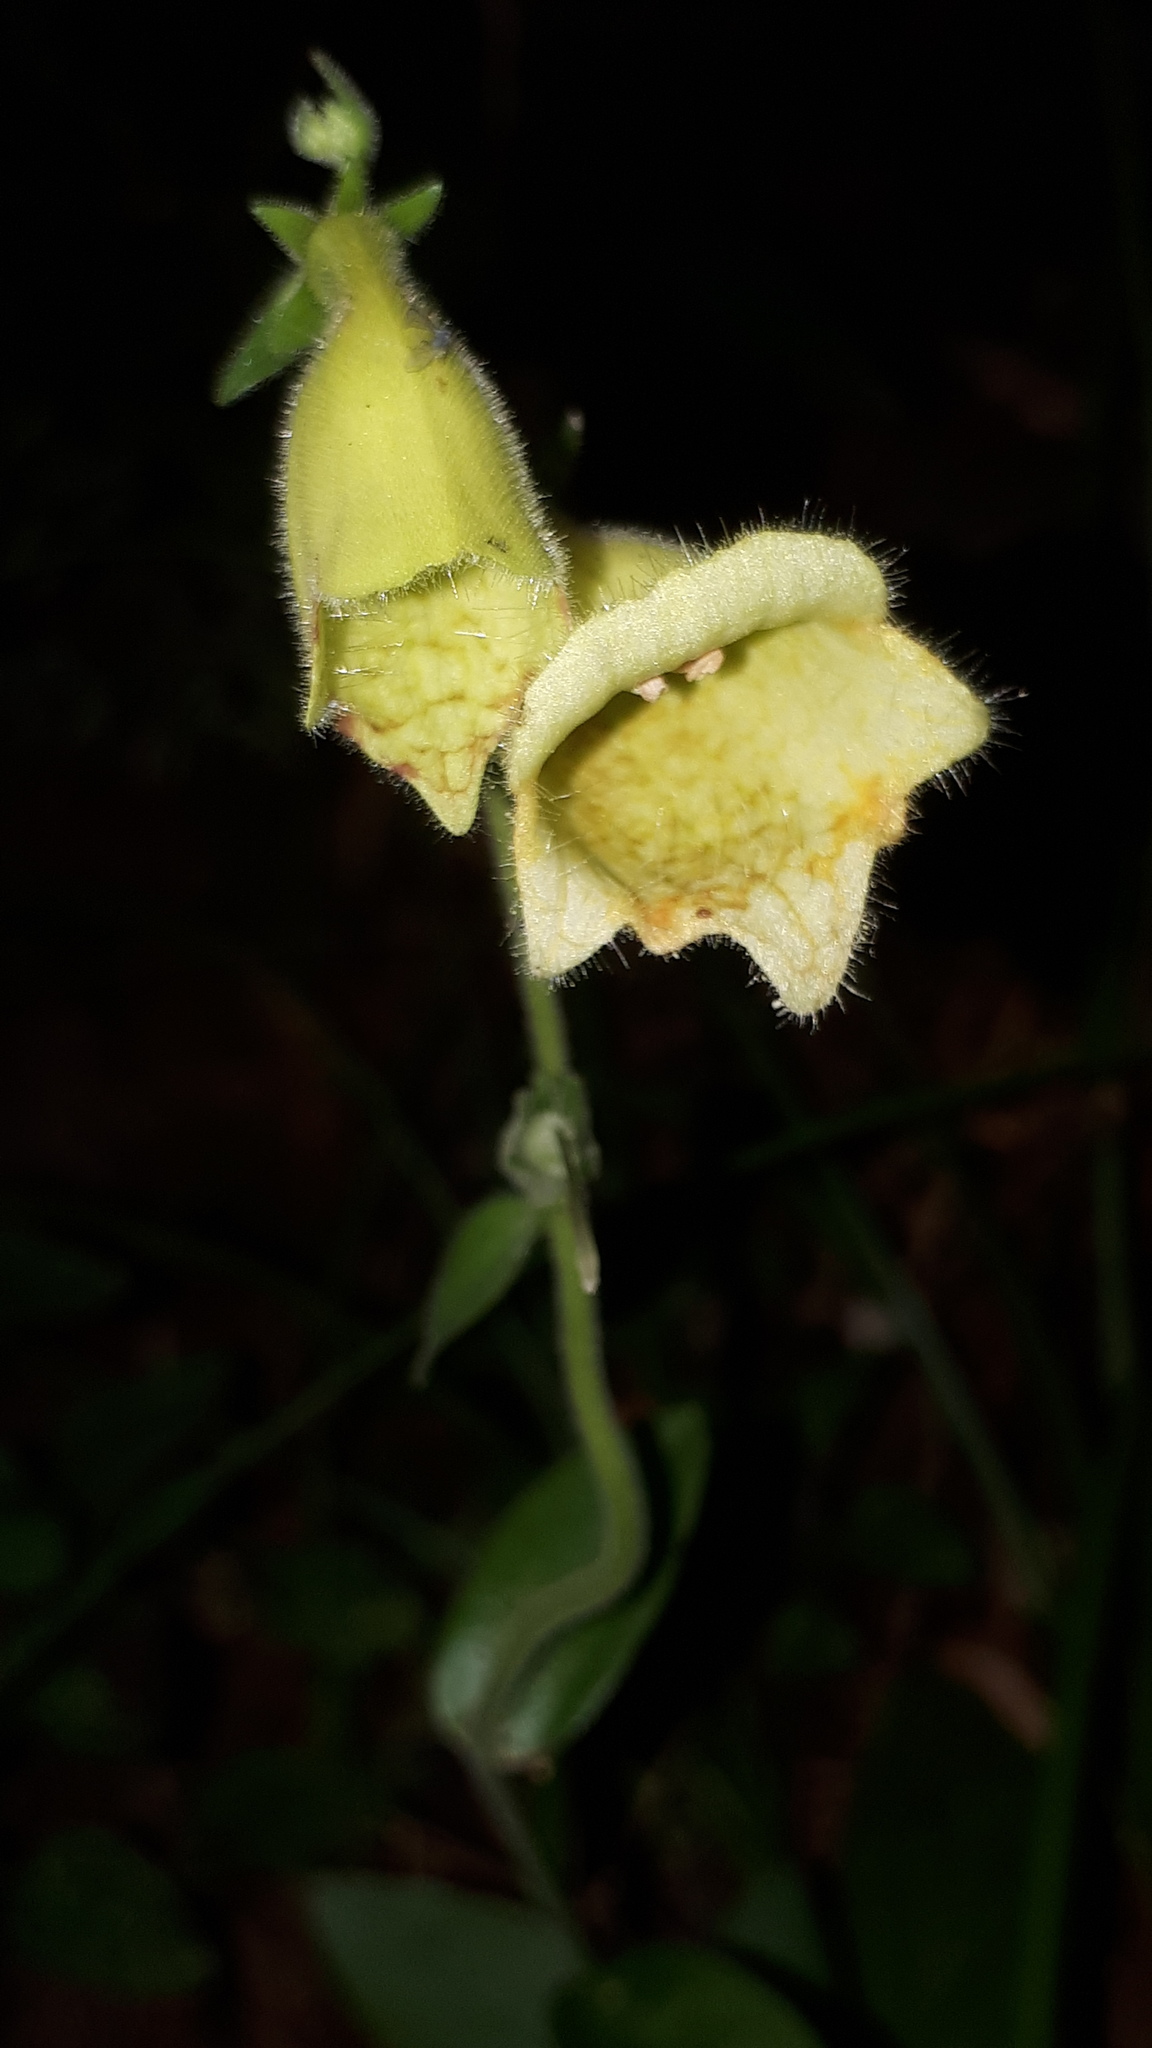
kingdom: Plantae
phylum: Tracheophyta
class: Magnoliopsida
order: Lamiales
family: Plantaginaceae
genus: Digitalis
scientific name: Digitalis grandiflora
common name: Yellow foxglove
